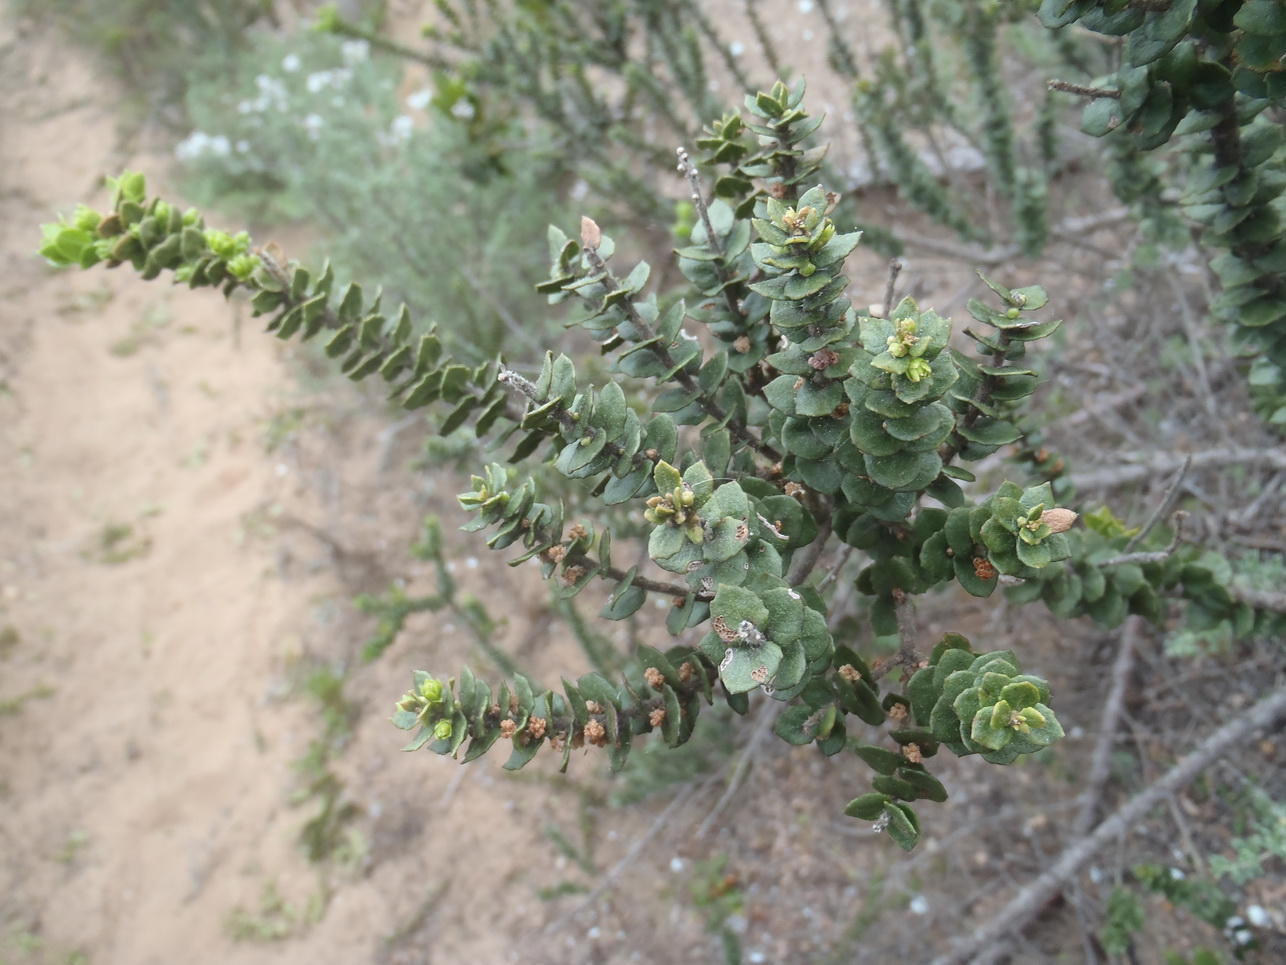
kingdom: Plantae
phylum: Tracheophyta
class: Magnoliopsida
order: Fagales
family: Myricaceae
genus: Morella
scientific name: Morella cordifolia
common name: Waxberry
